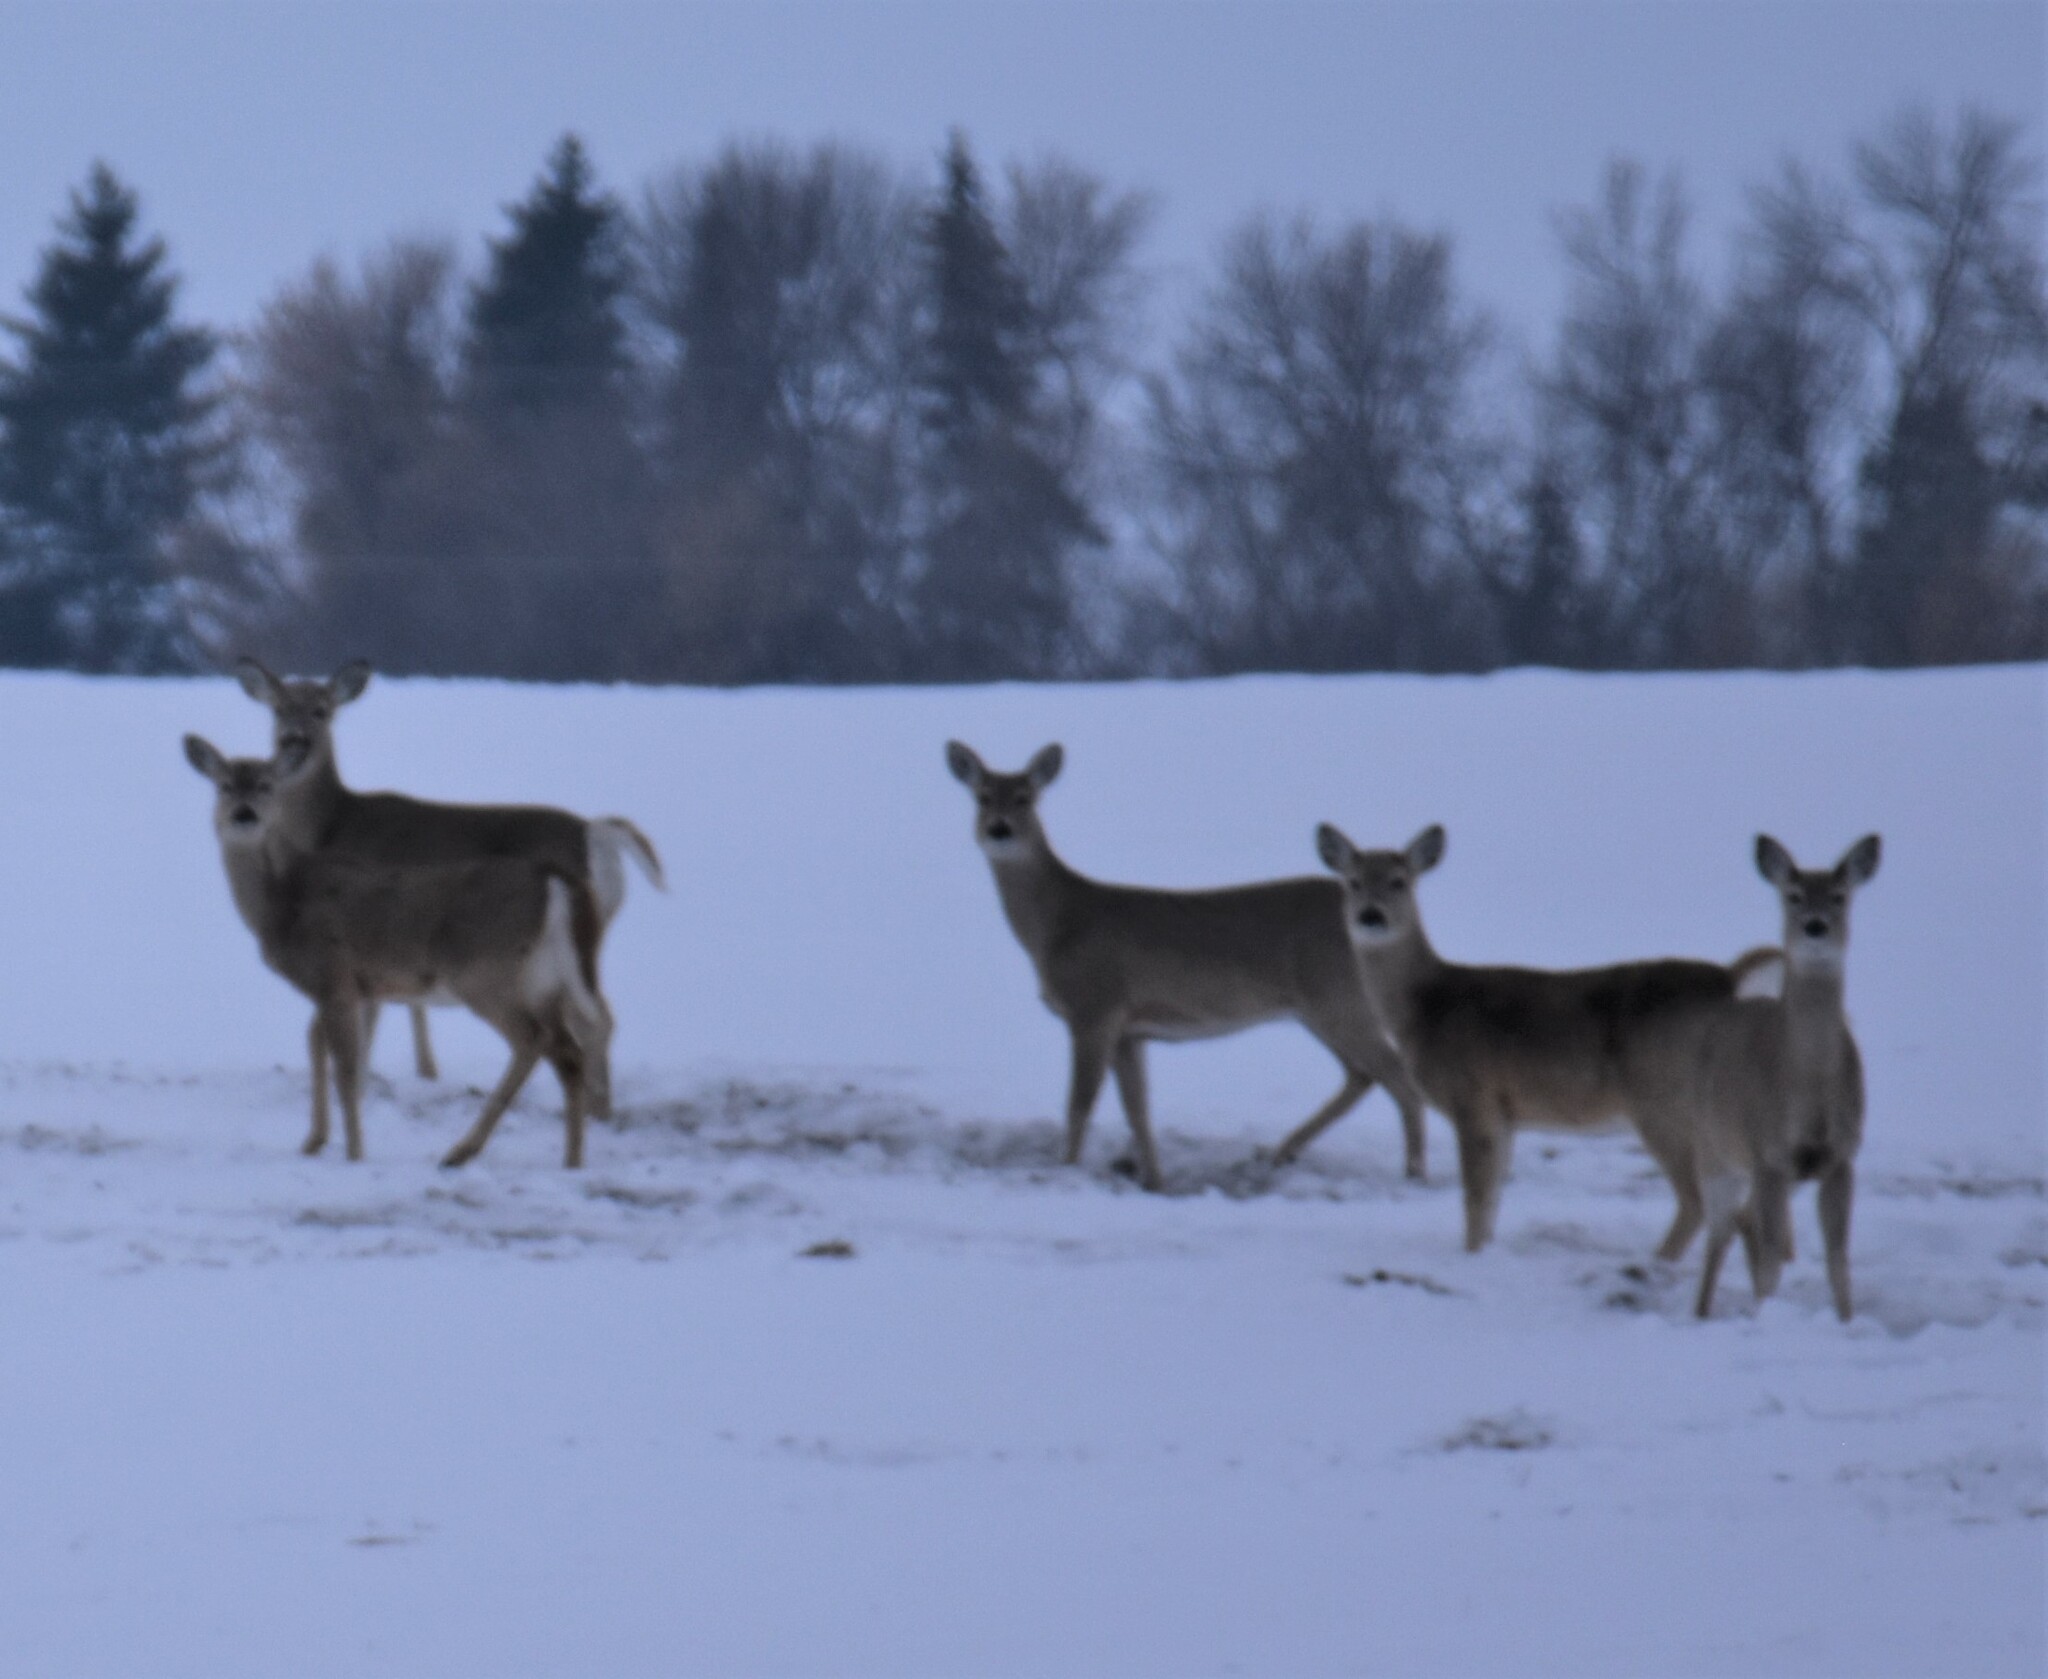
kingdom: Animalia
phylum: Chordata
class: Mammalia
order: Artiodactyla
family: Cervidae
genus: Odocoileus
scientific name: Odocoileus virginianus
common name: White-tailed deer
